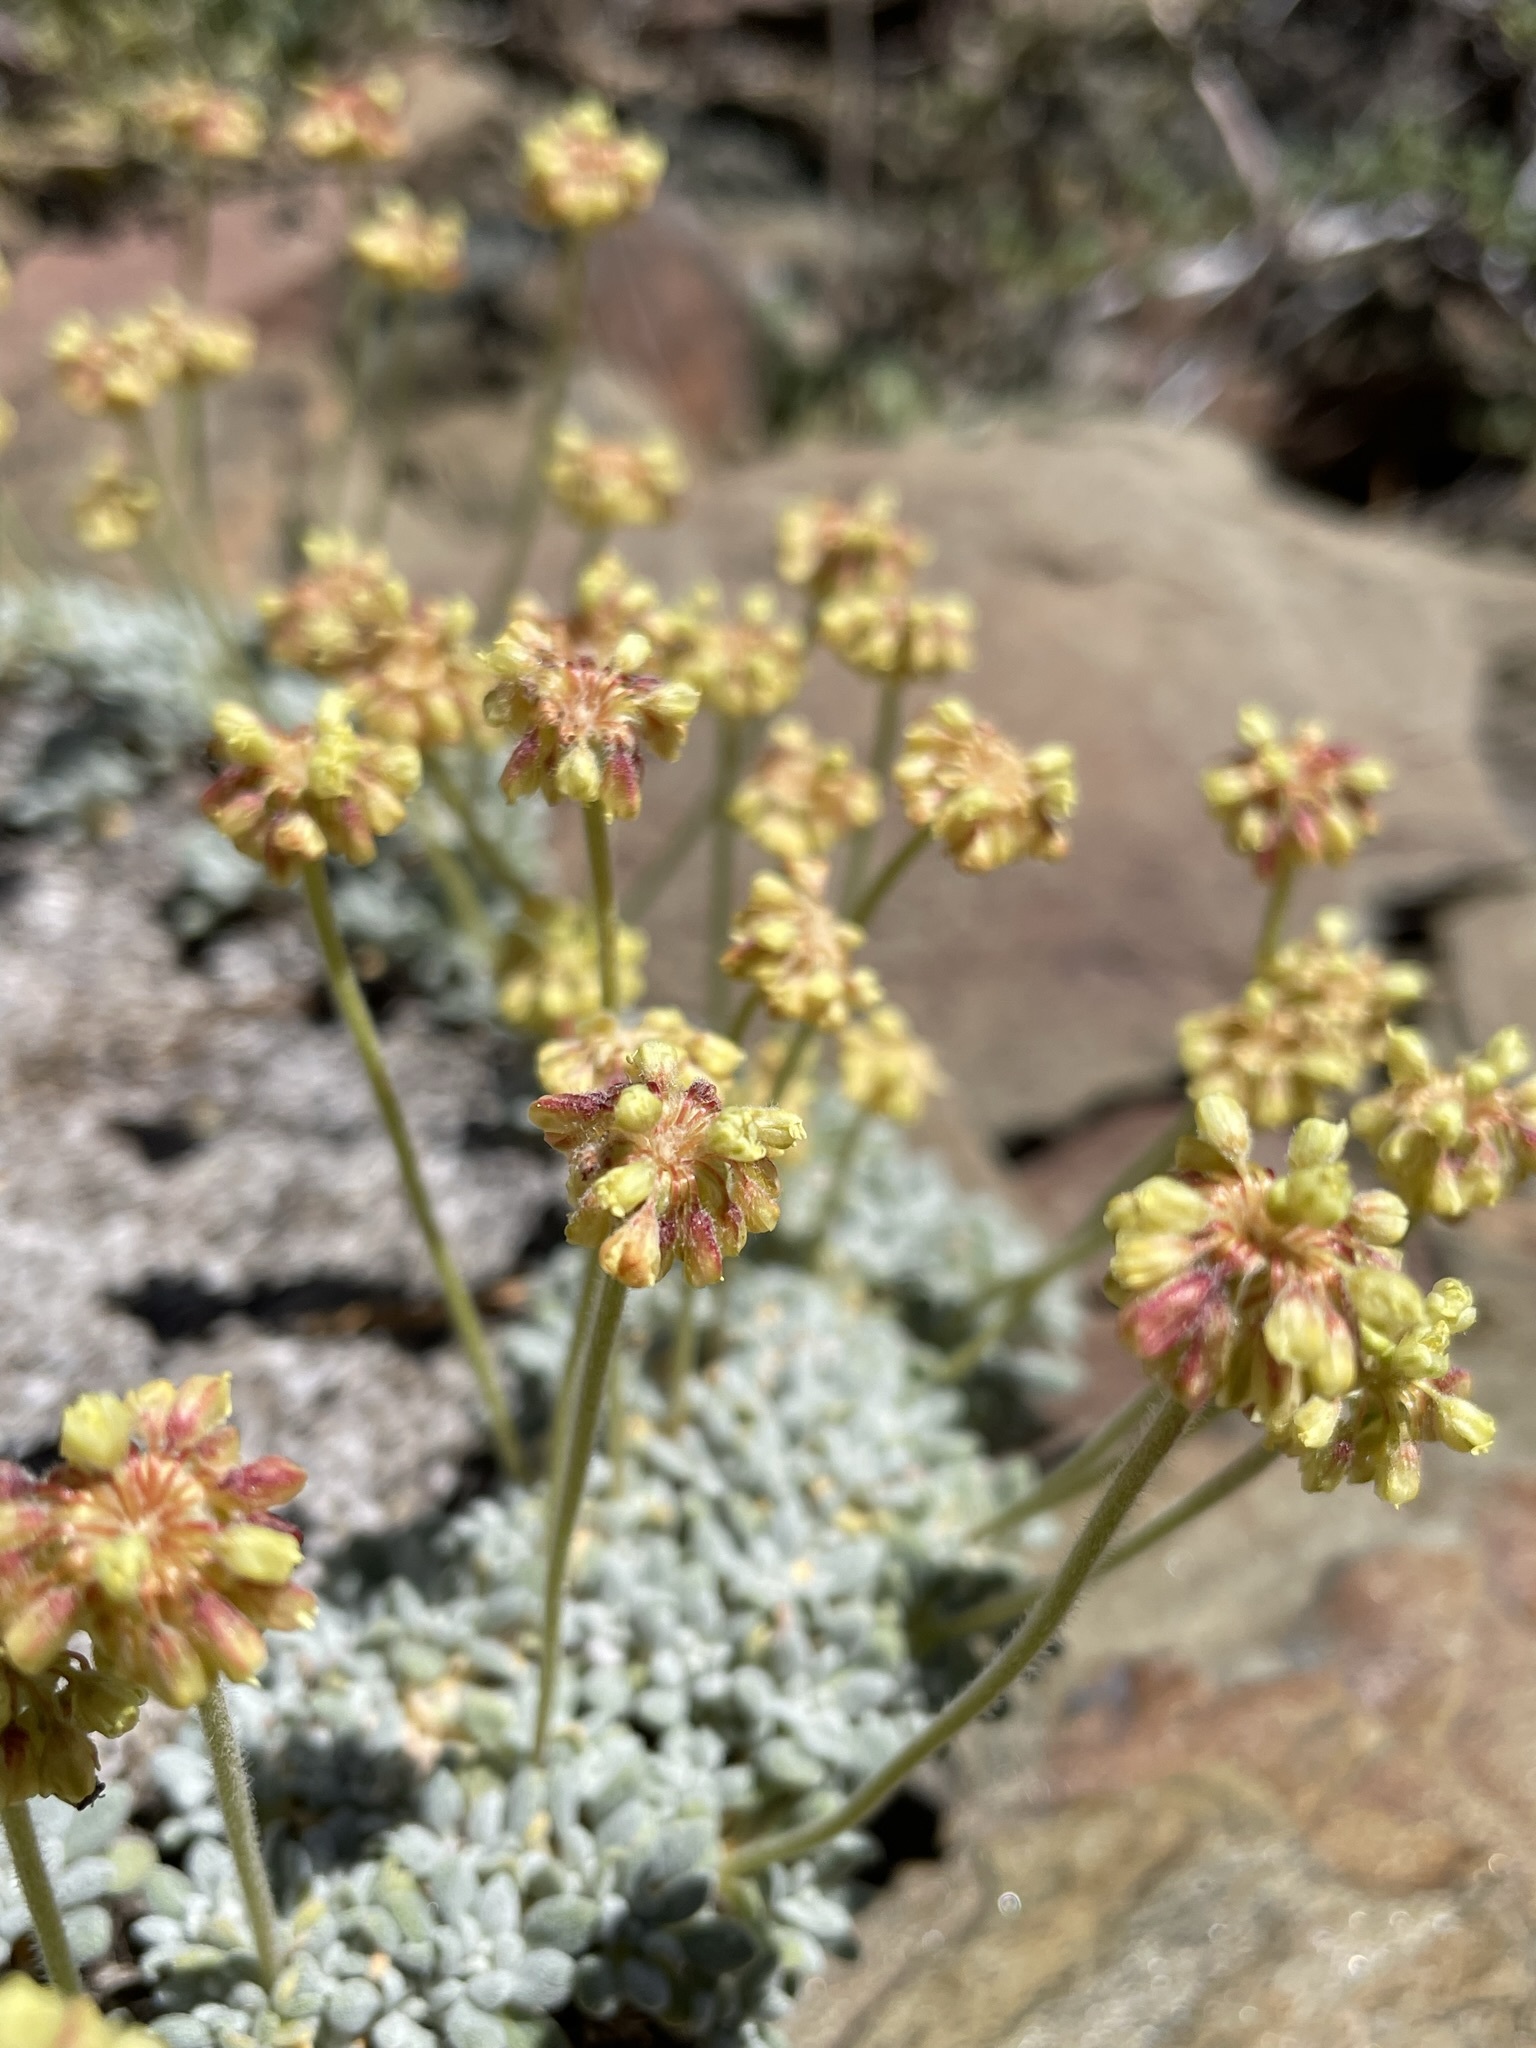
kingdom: Plantae
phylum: Tracheophyta
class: Magnoliopsida
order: Caryophyllales
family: Polygonaceae
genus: Eriogonum
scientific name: Eriogonum caespitosum
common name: Matted wild buckwheat
